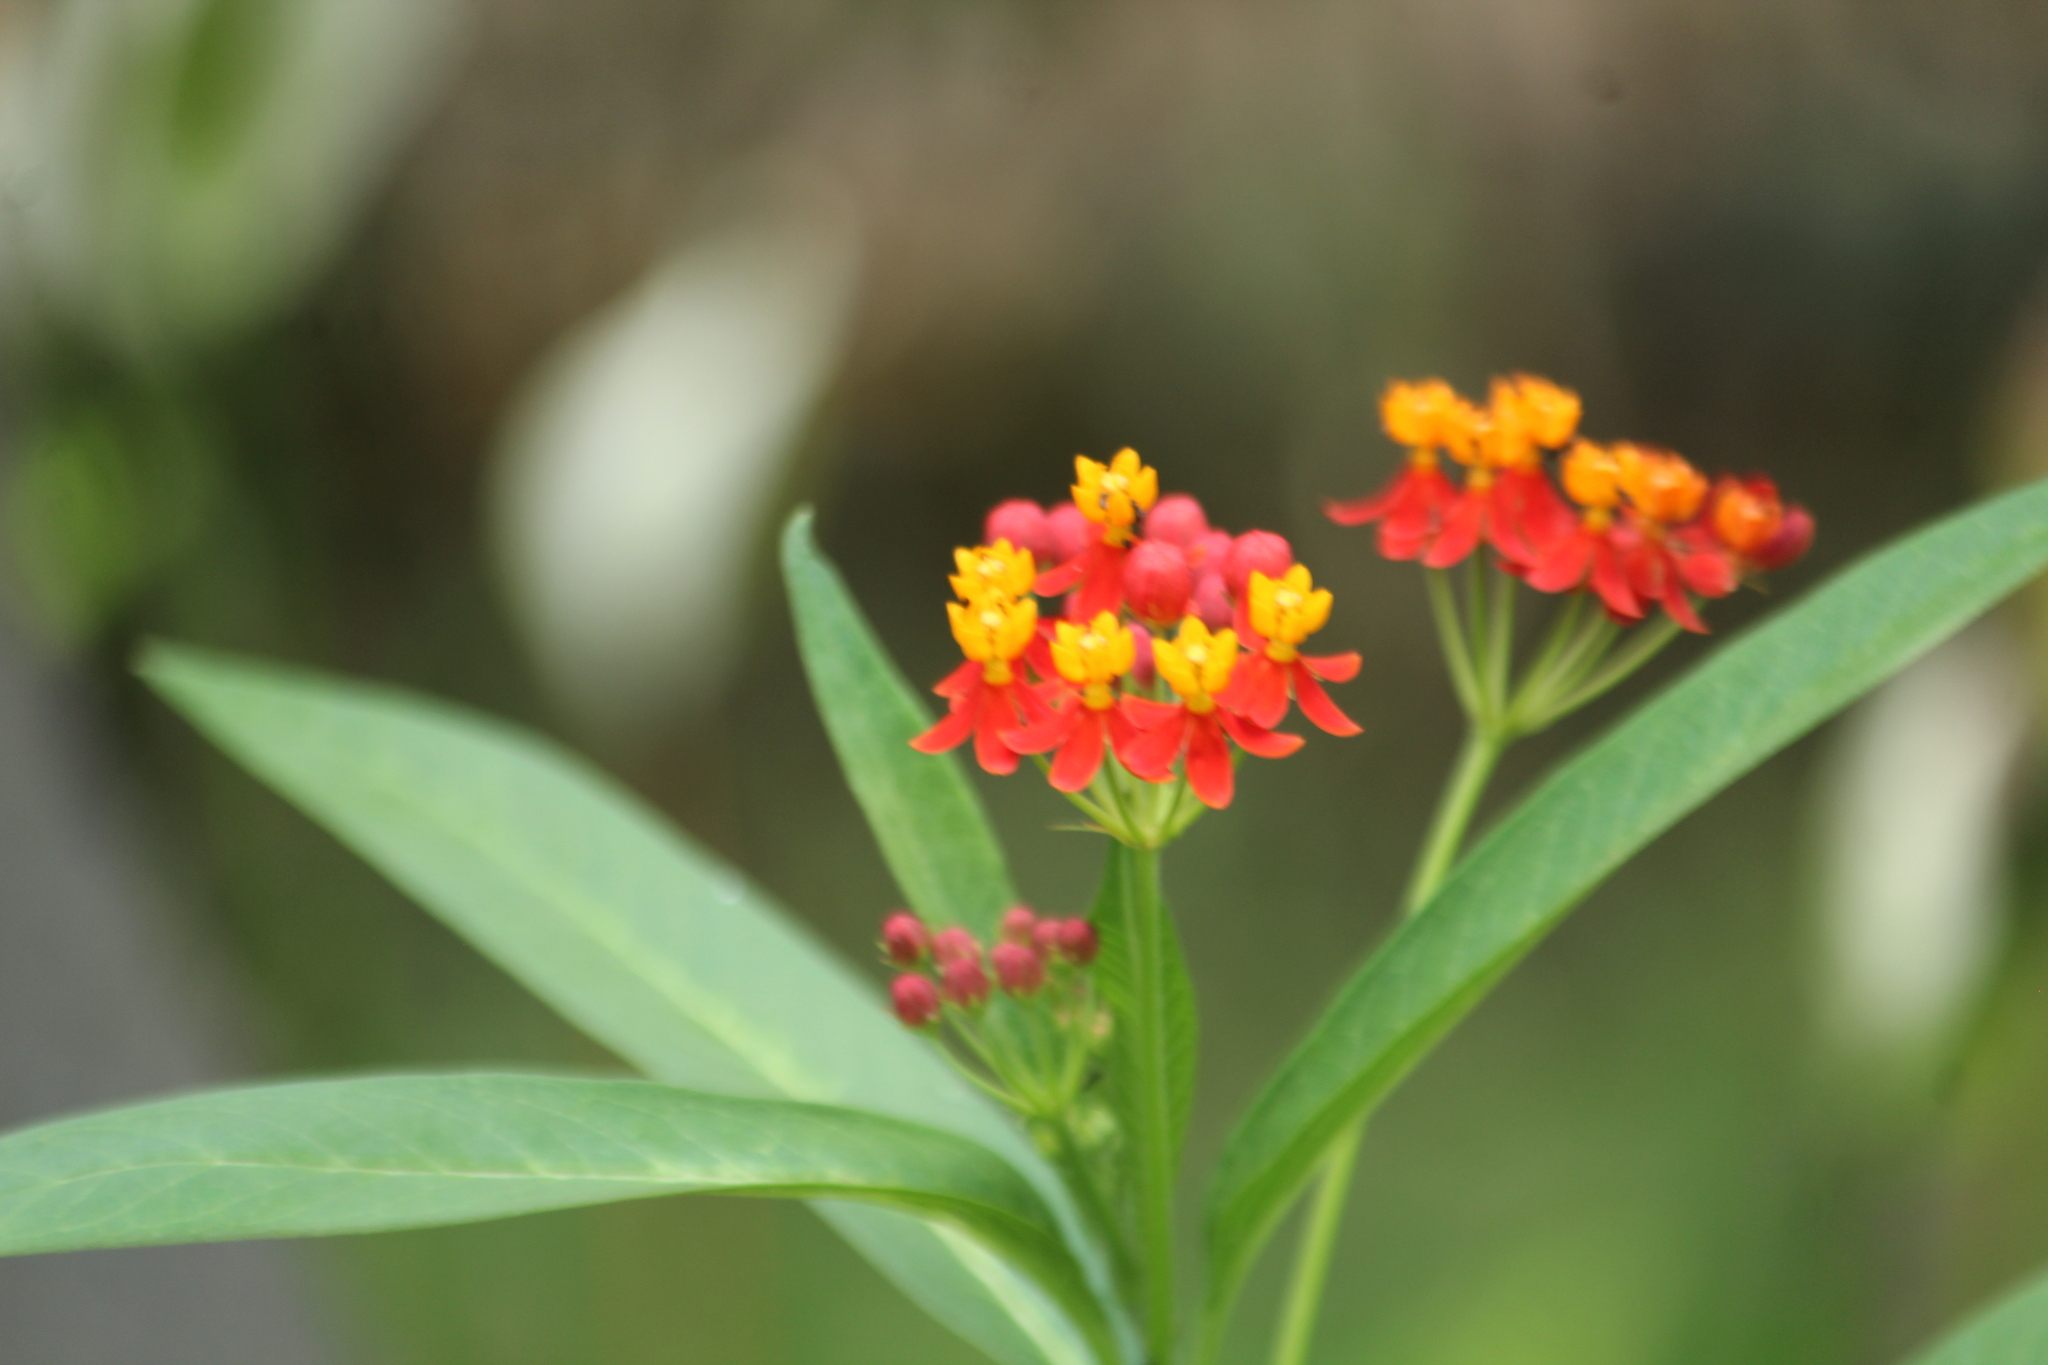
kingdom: Plantae
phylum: Tracheophyta
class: Magnoliopsida
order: Gentianales
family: Apocynaceae
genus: Asclepias
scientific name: Asclepias curassavica
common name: Bloodflower
